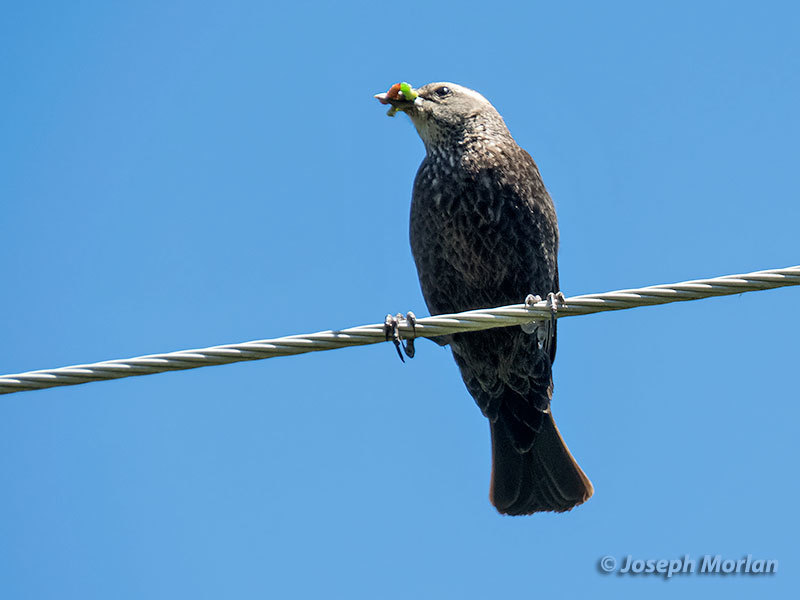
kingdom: Animalia
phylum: Chordata
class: Aves
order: Passeriformes
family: Icteridae
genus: Agelaius
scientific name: Agelaius phoeniceus
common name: Red-winged blackbird
